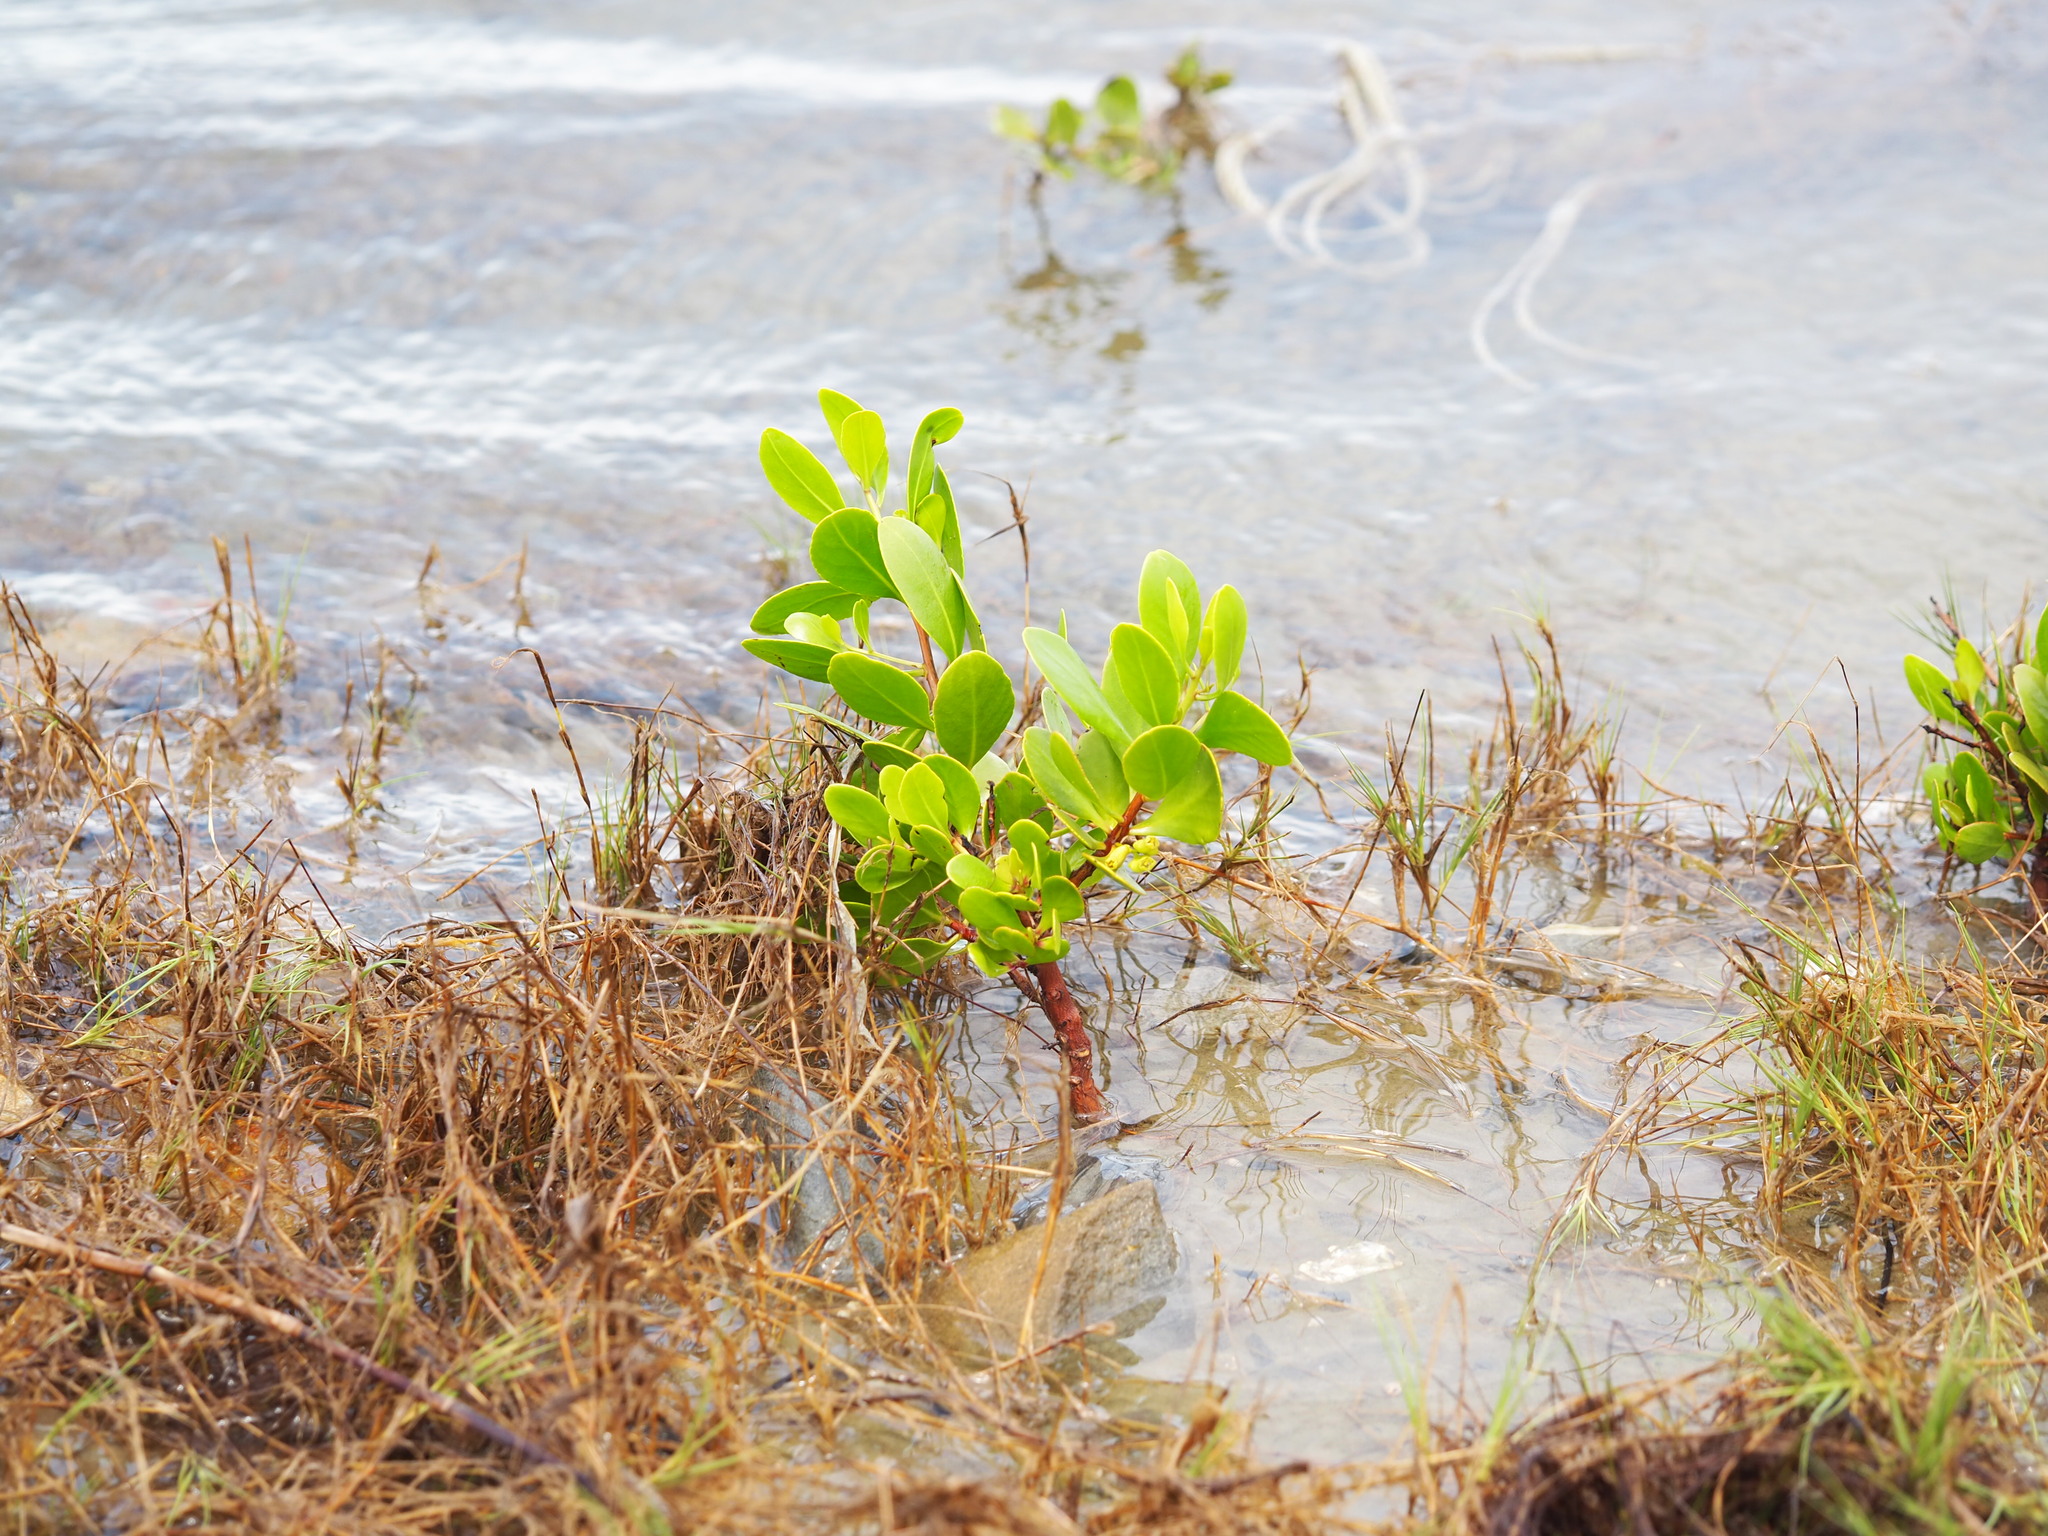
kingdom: Plantae
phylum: Tracheophyta
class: Magnoliopsida
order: Myrtales
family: Combretaceae
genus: Lumnitzera
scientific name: Lumnitzera racemosa
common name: White-flowered black mangrove
